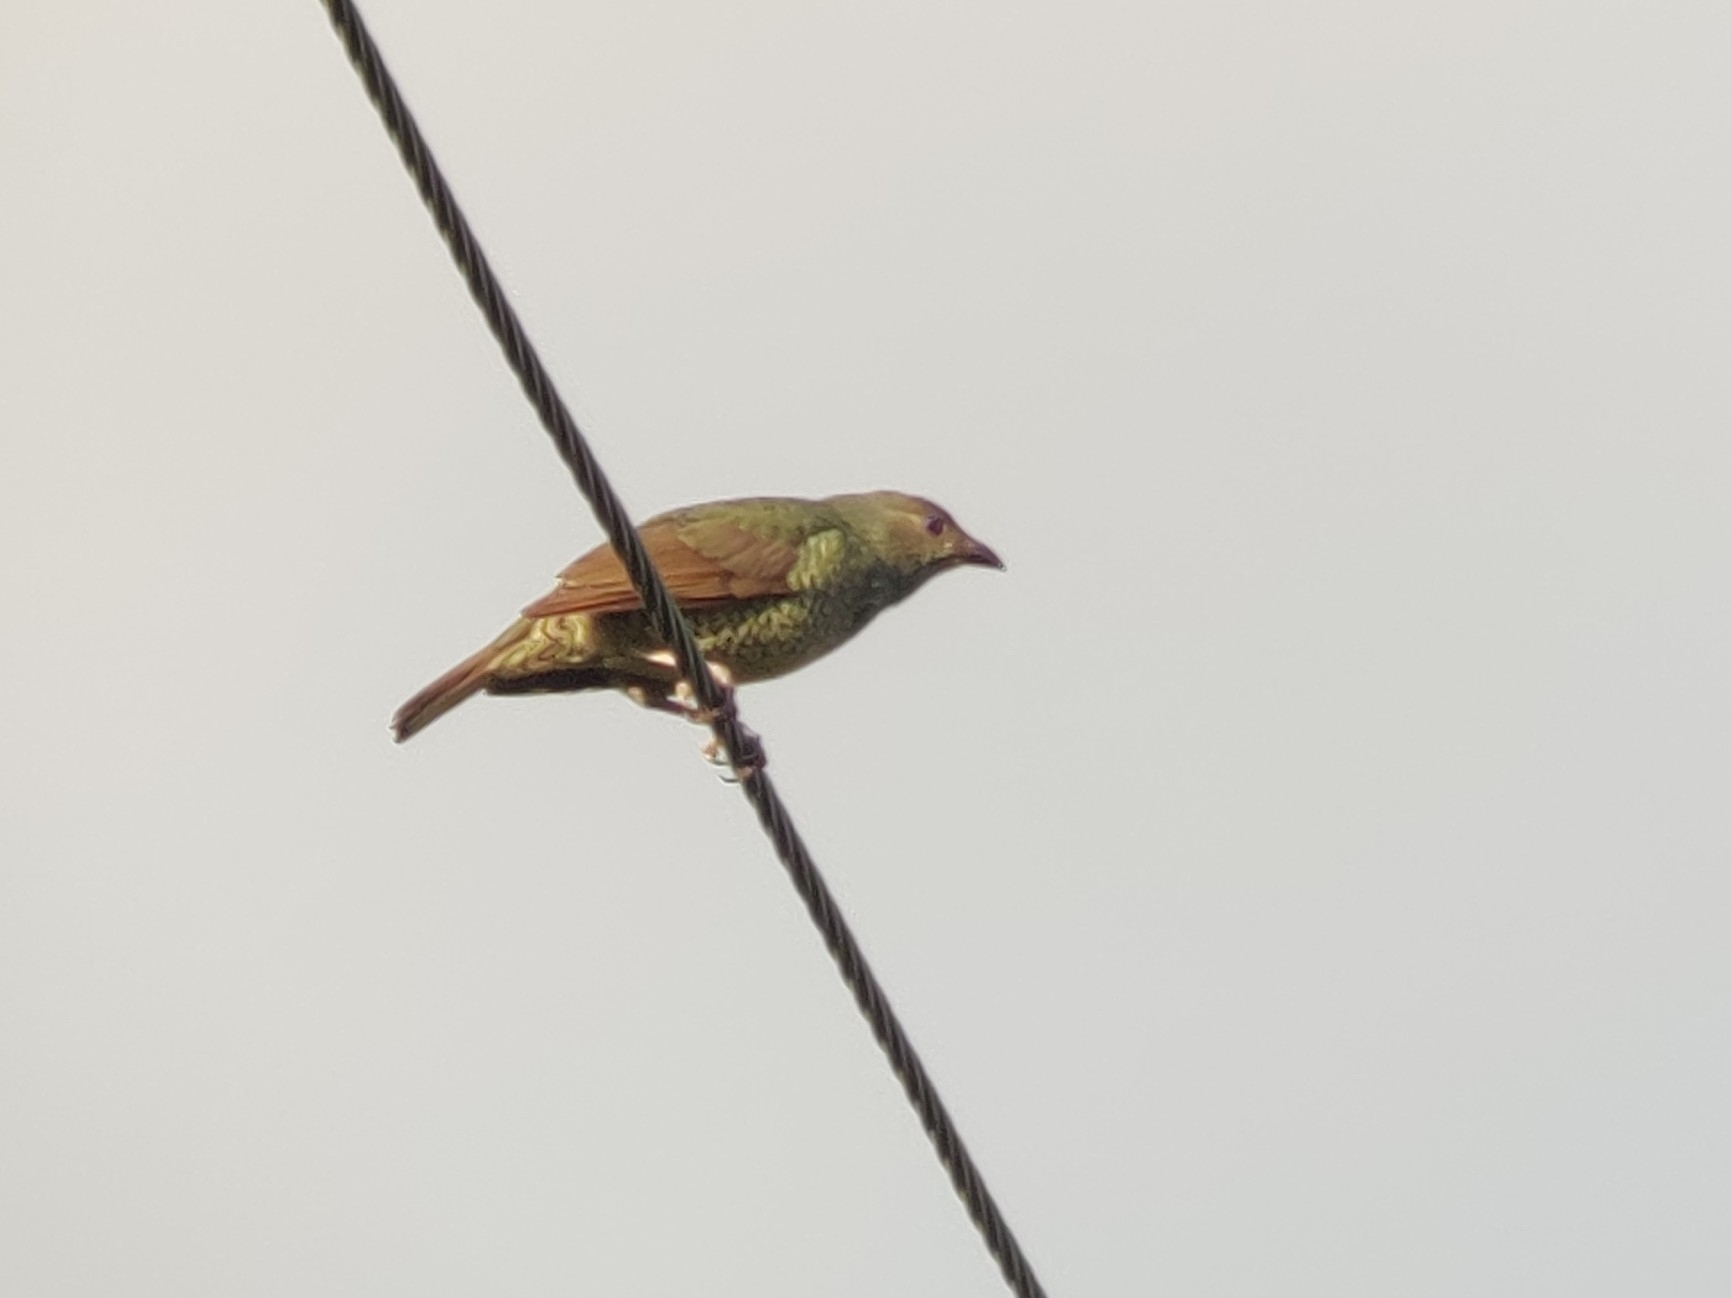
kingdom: Animalia
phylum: Chordata
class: Aves
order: Passeriformes
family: Ptilonorhynchidae
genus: Ptilonorhynchus
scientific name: Ptilonorhynchus violaceus
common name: Satin bowerbird
